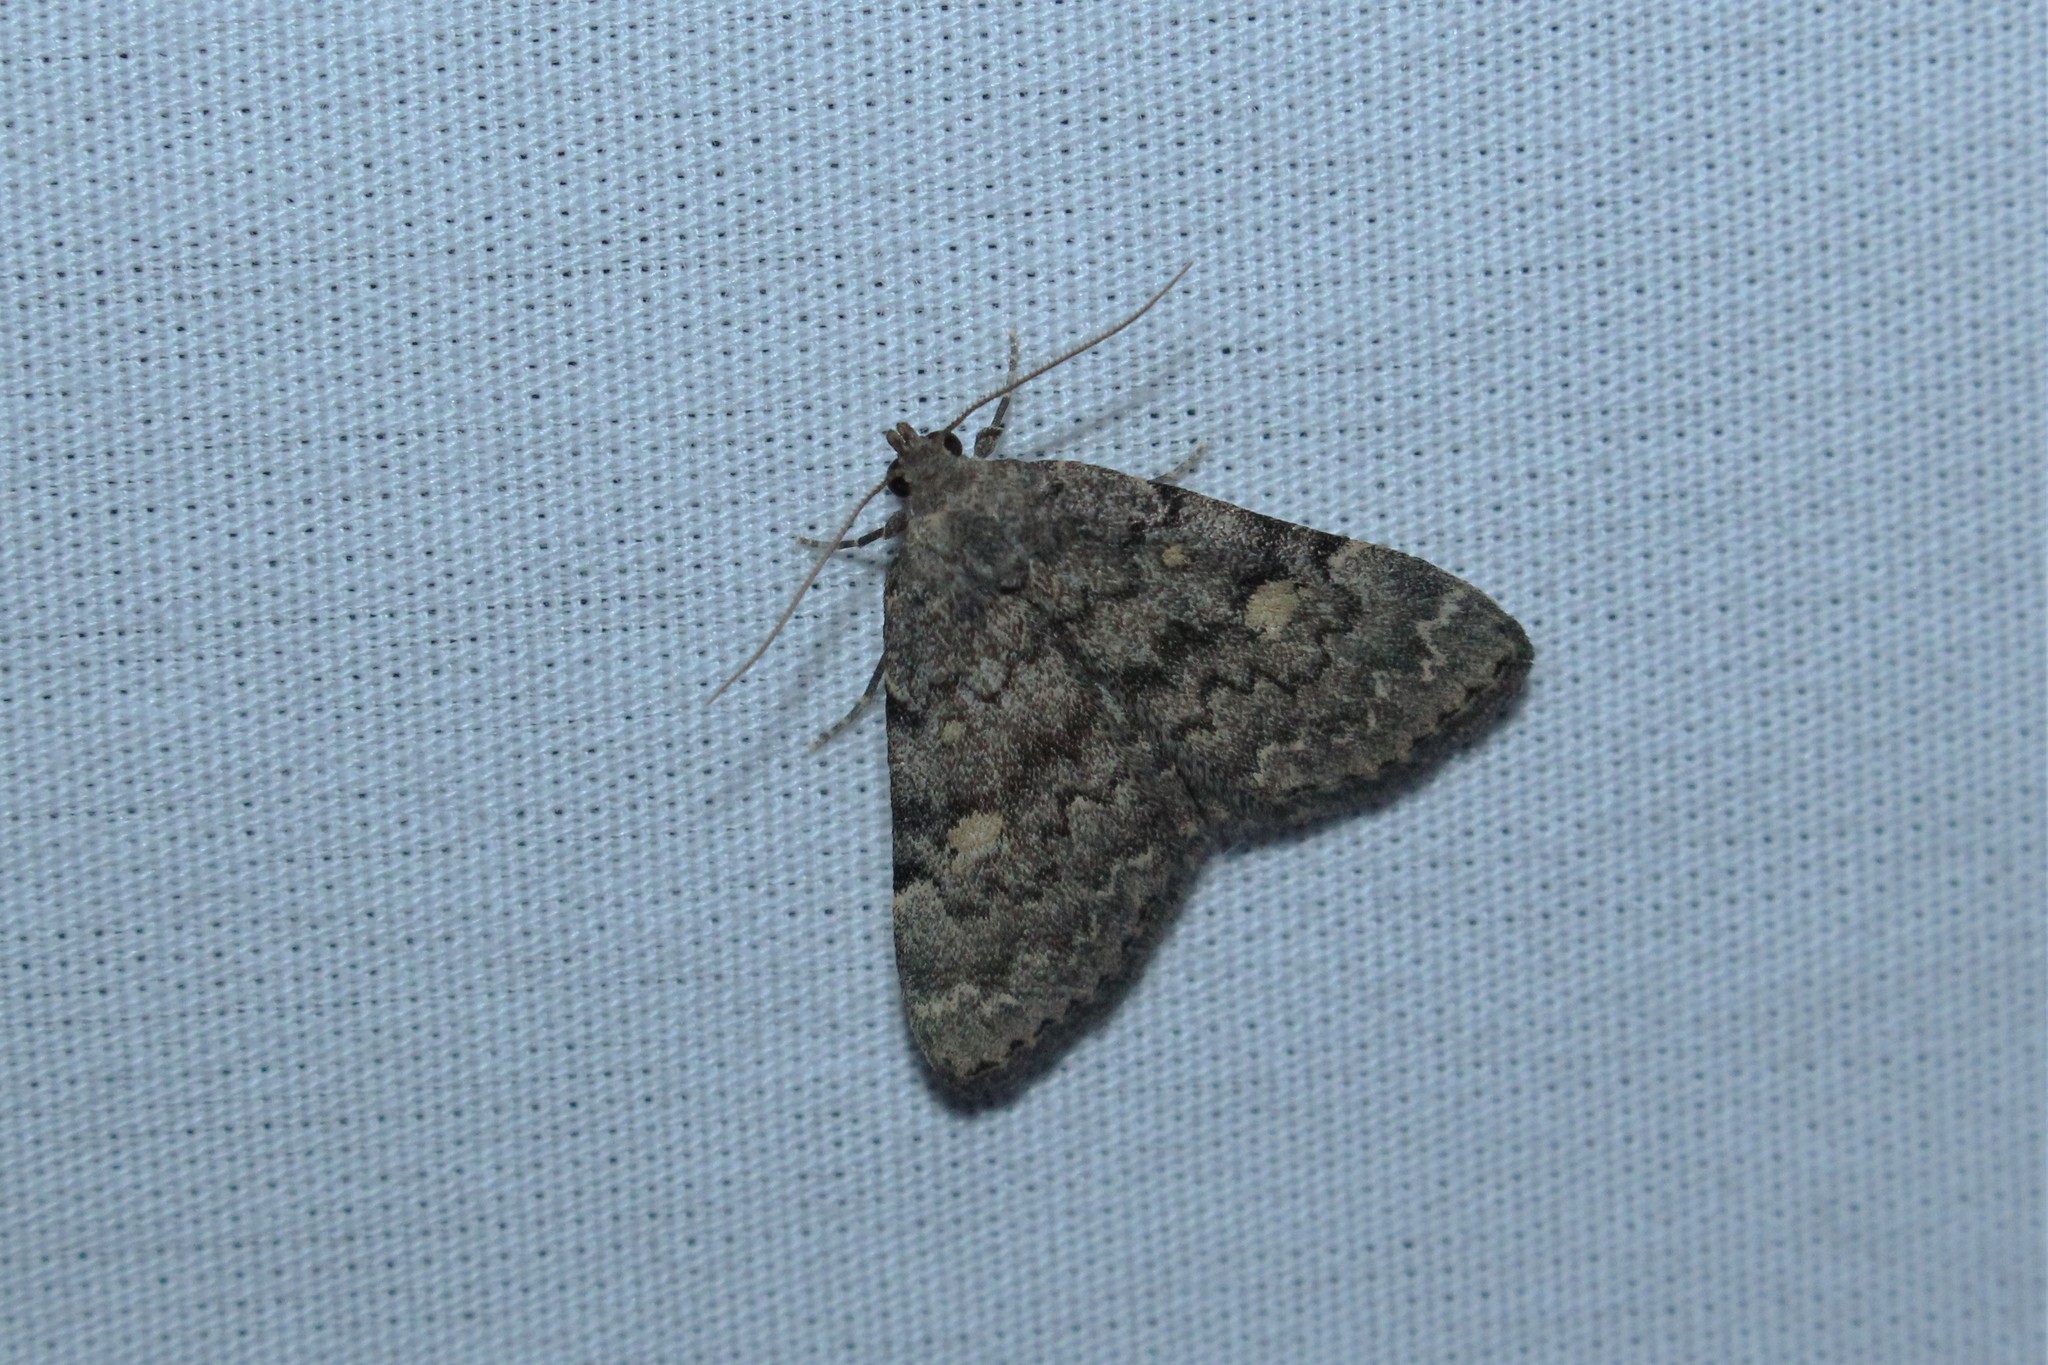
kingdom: Animalia
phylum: Arthropoda
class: Insecta
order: Lepidoptera
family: Erebidae
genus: Idia
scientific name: Idia aemula
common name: Common idia moth
